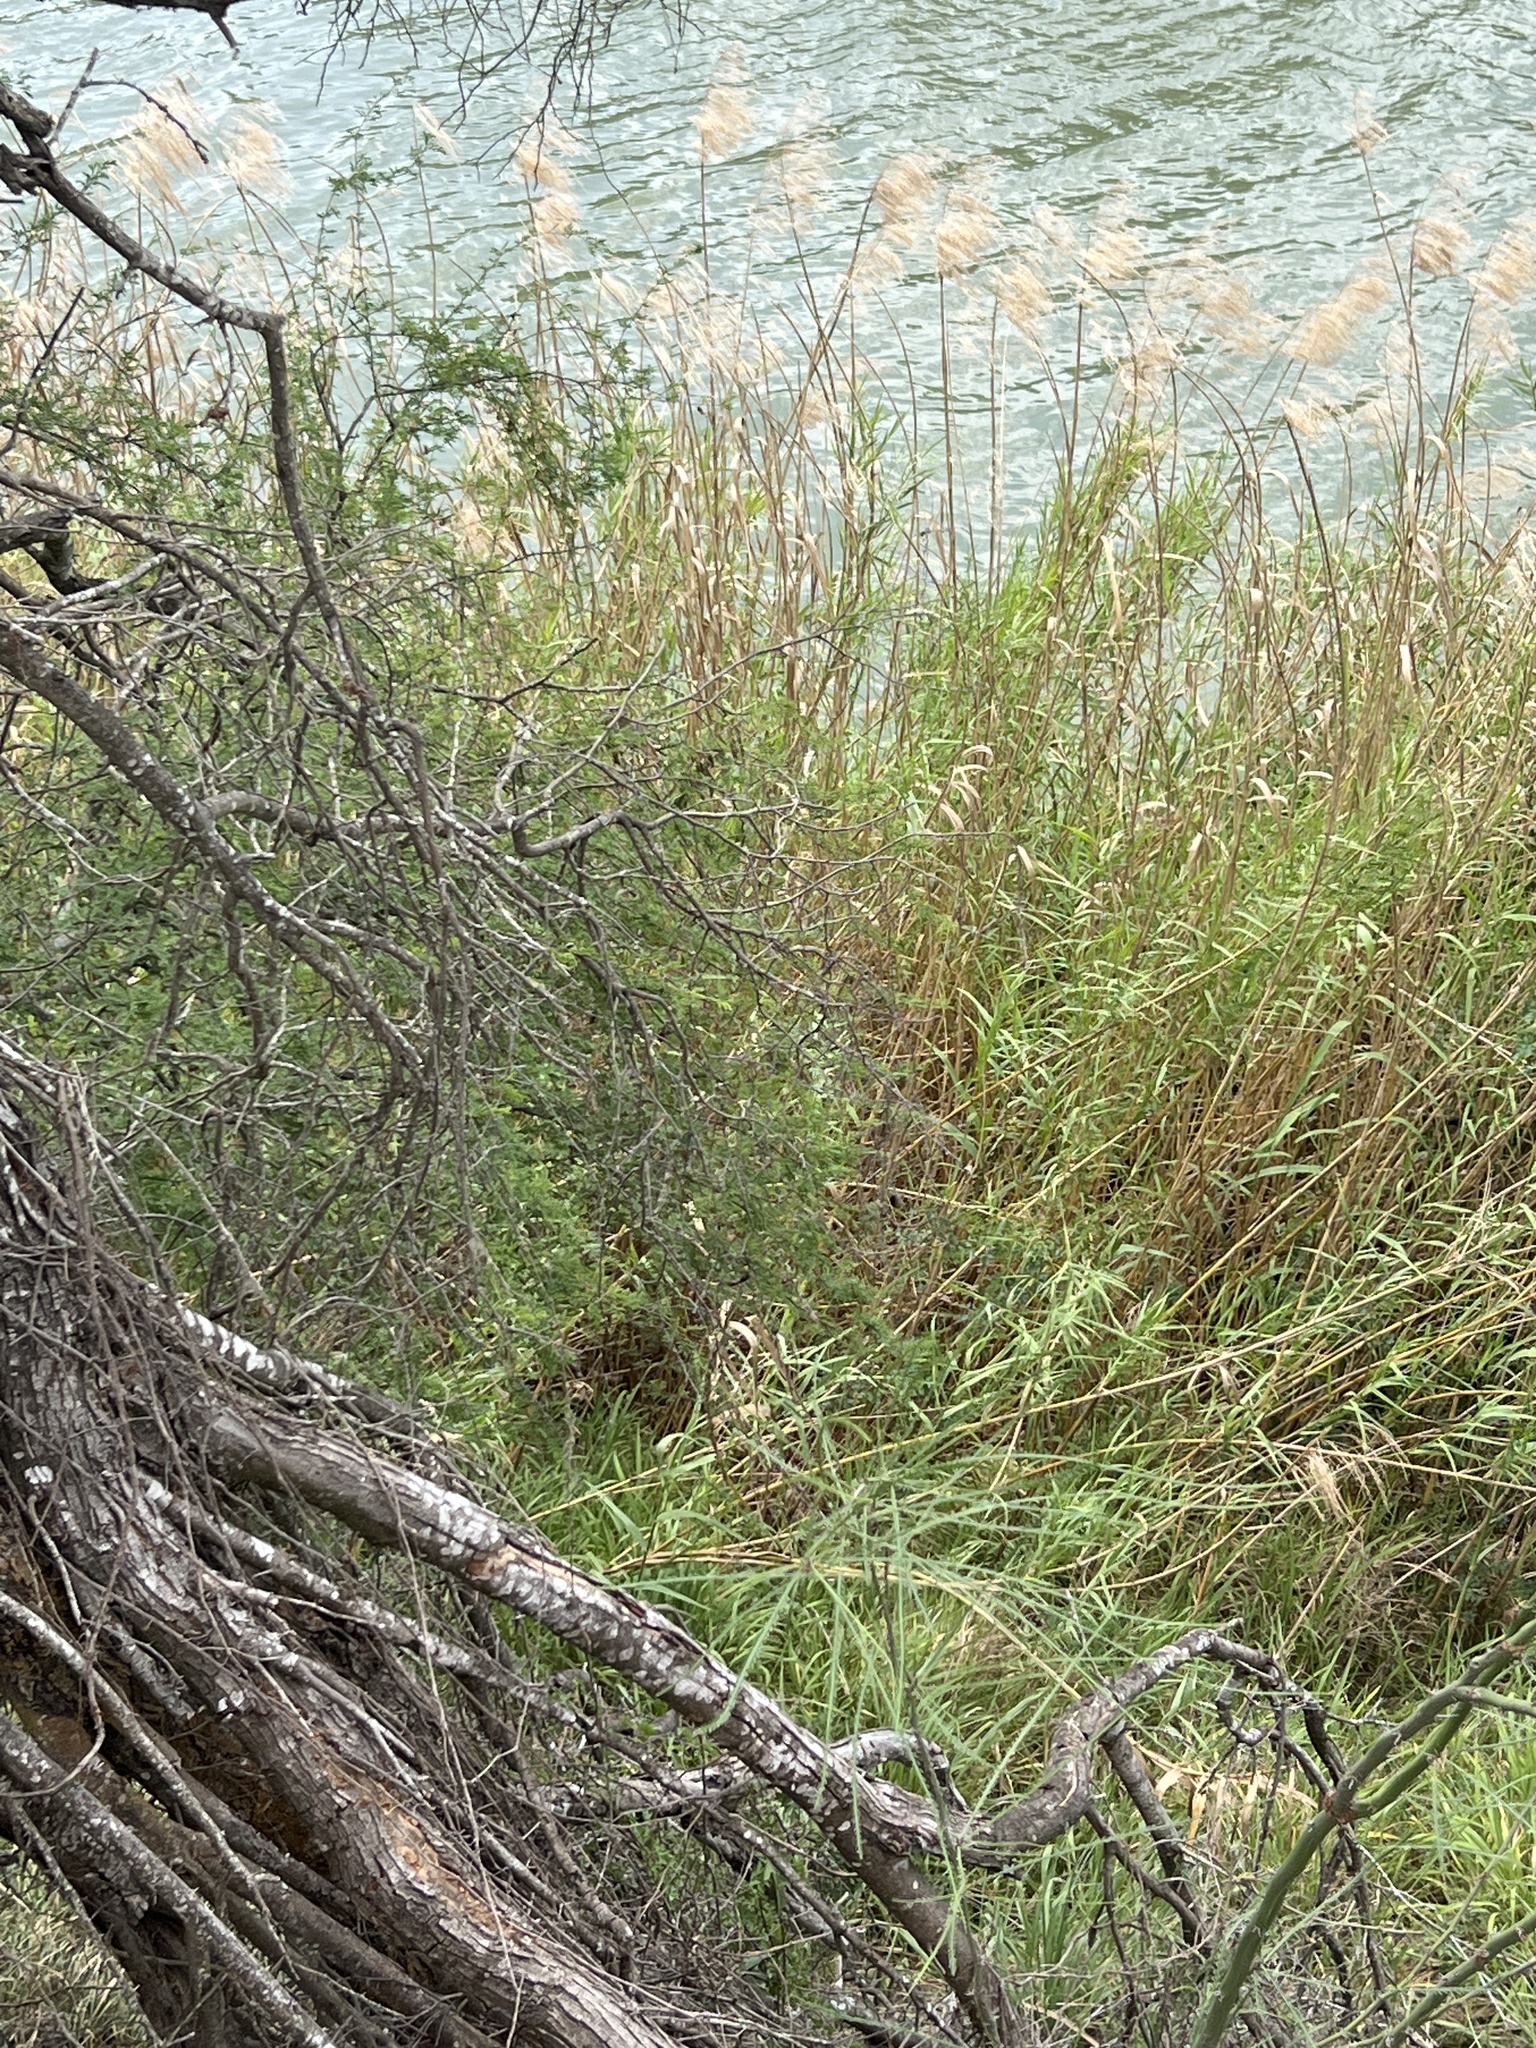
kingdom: Plantae
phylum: Tracheophyta
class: Liliopsida
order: Poales
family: Poaceae
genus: Phragmites
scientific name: Phragmites australis
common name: Common reed
